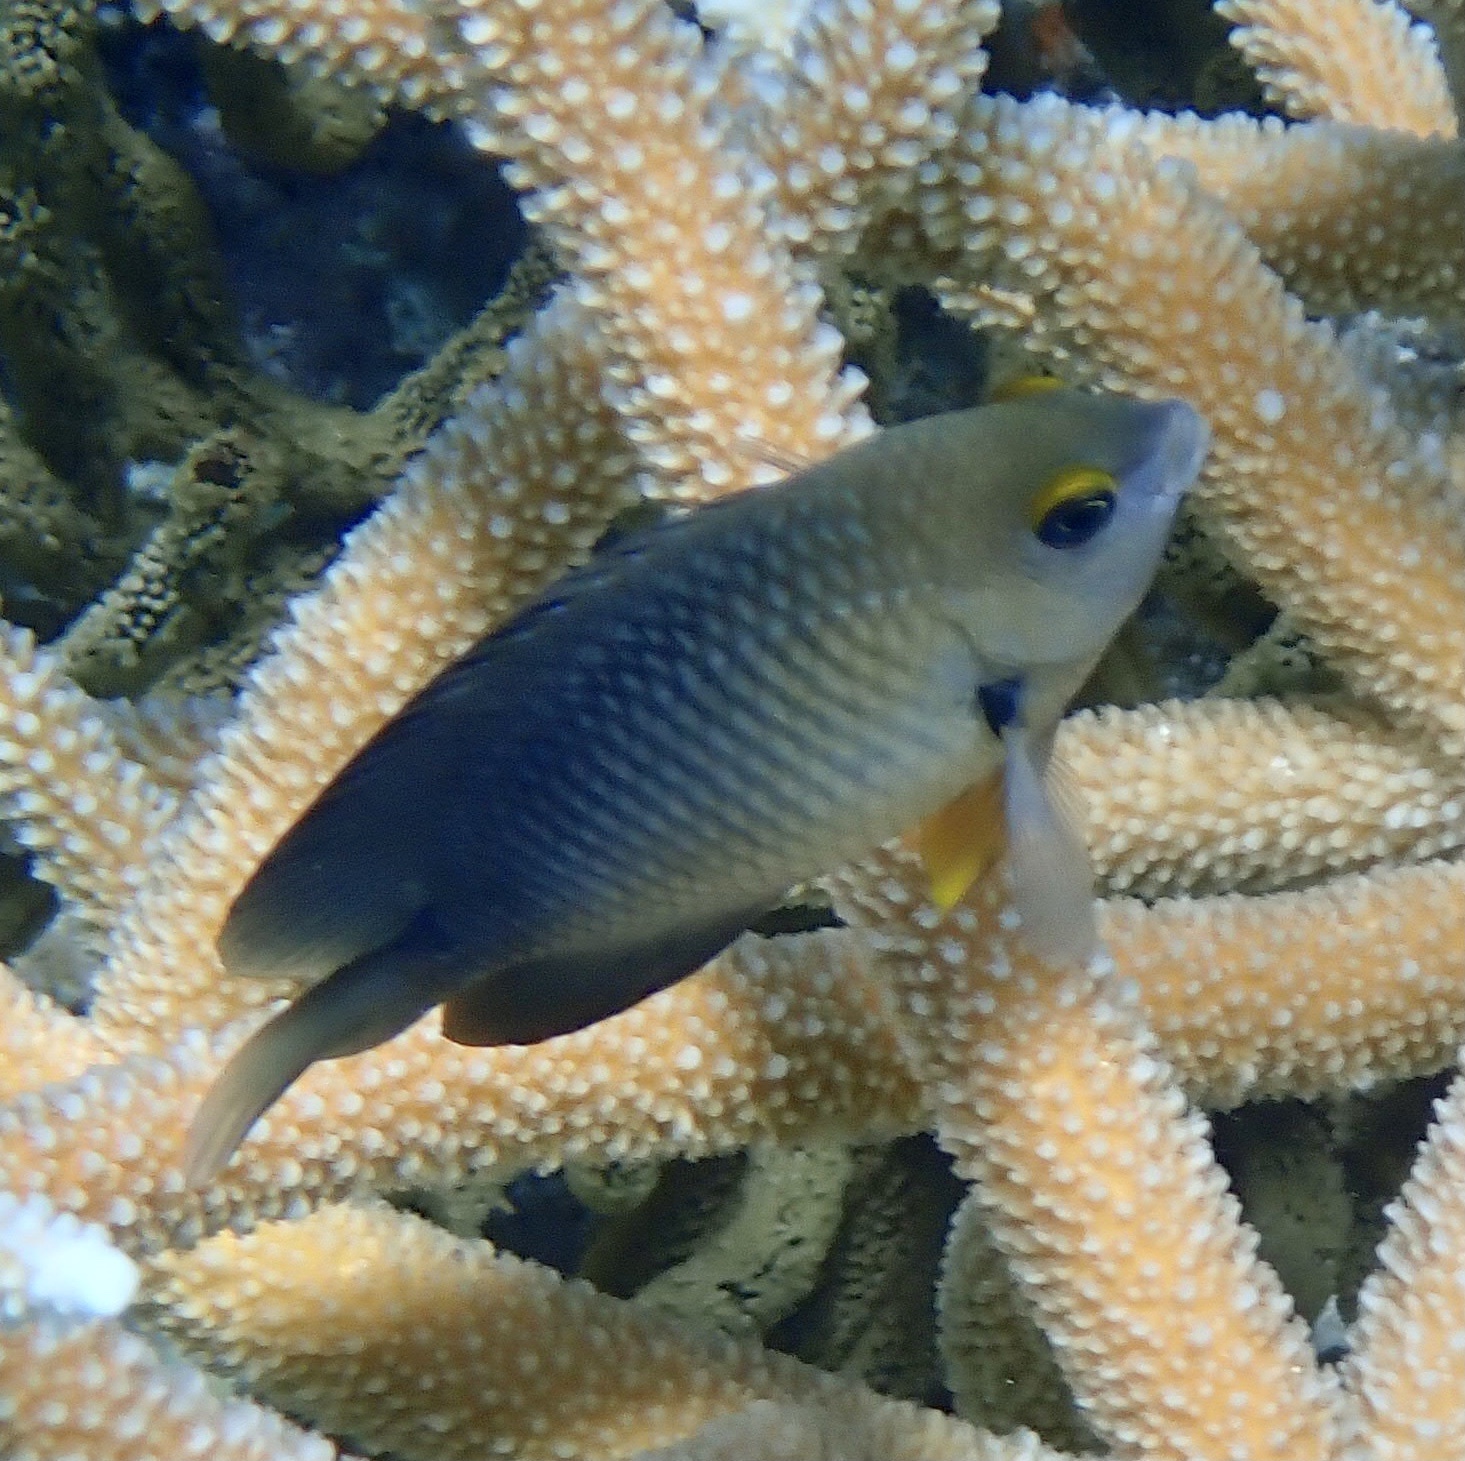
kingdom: Animalia
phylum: Chordata
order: Perciformes
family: Pomacentridae
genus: Stegastes
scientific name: Stegastes planifrons
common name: Threespot damselfish
